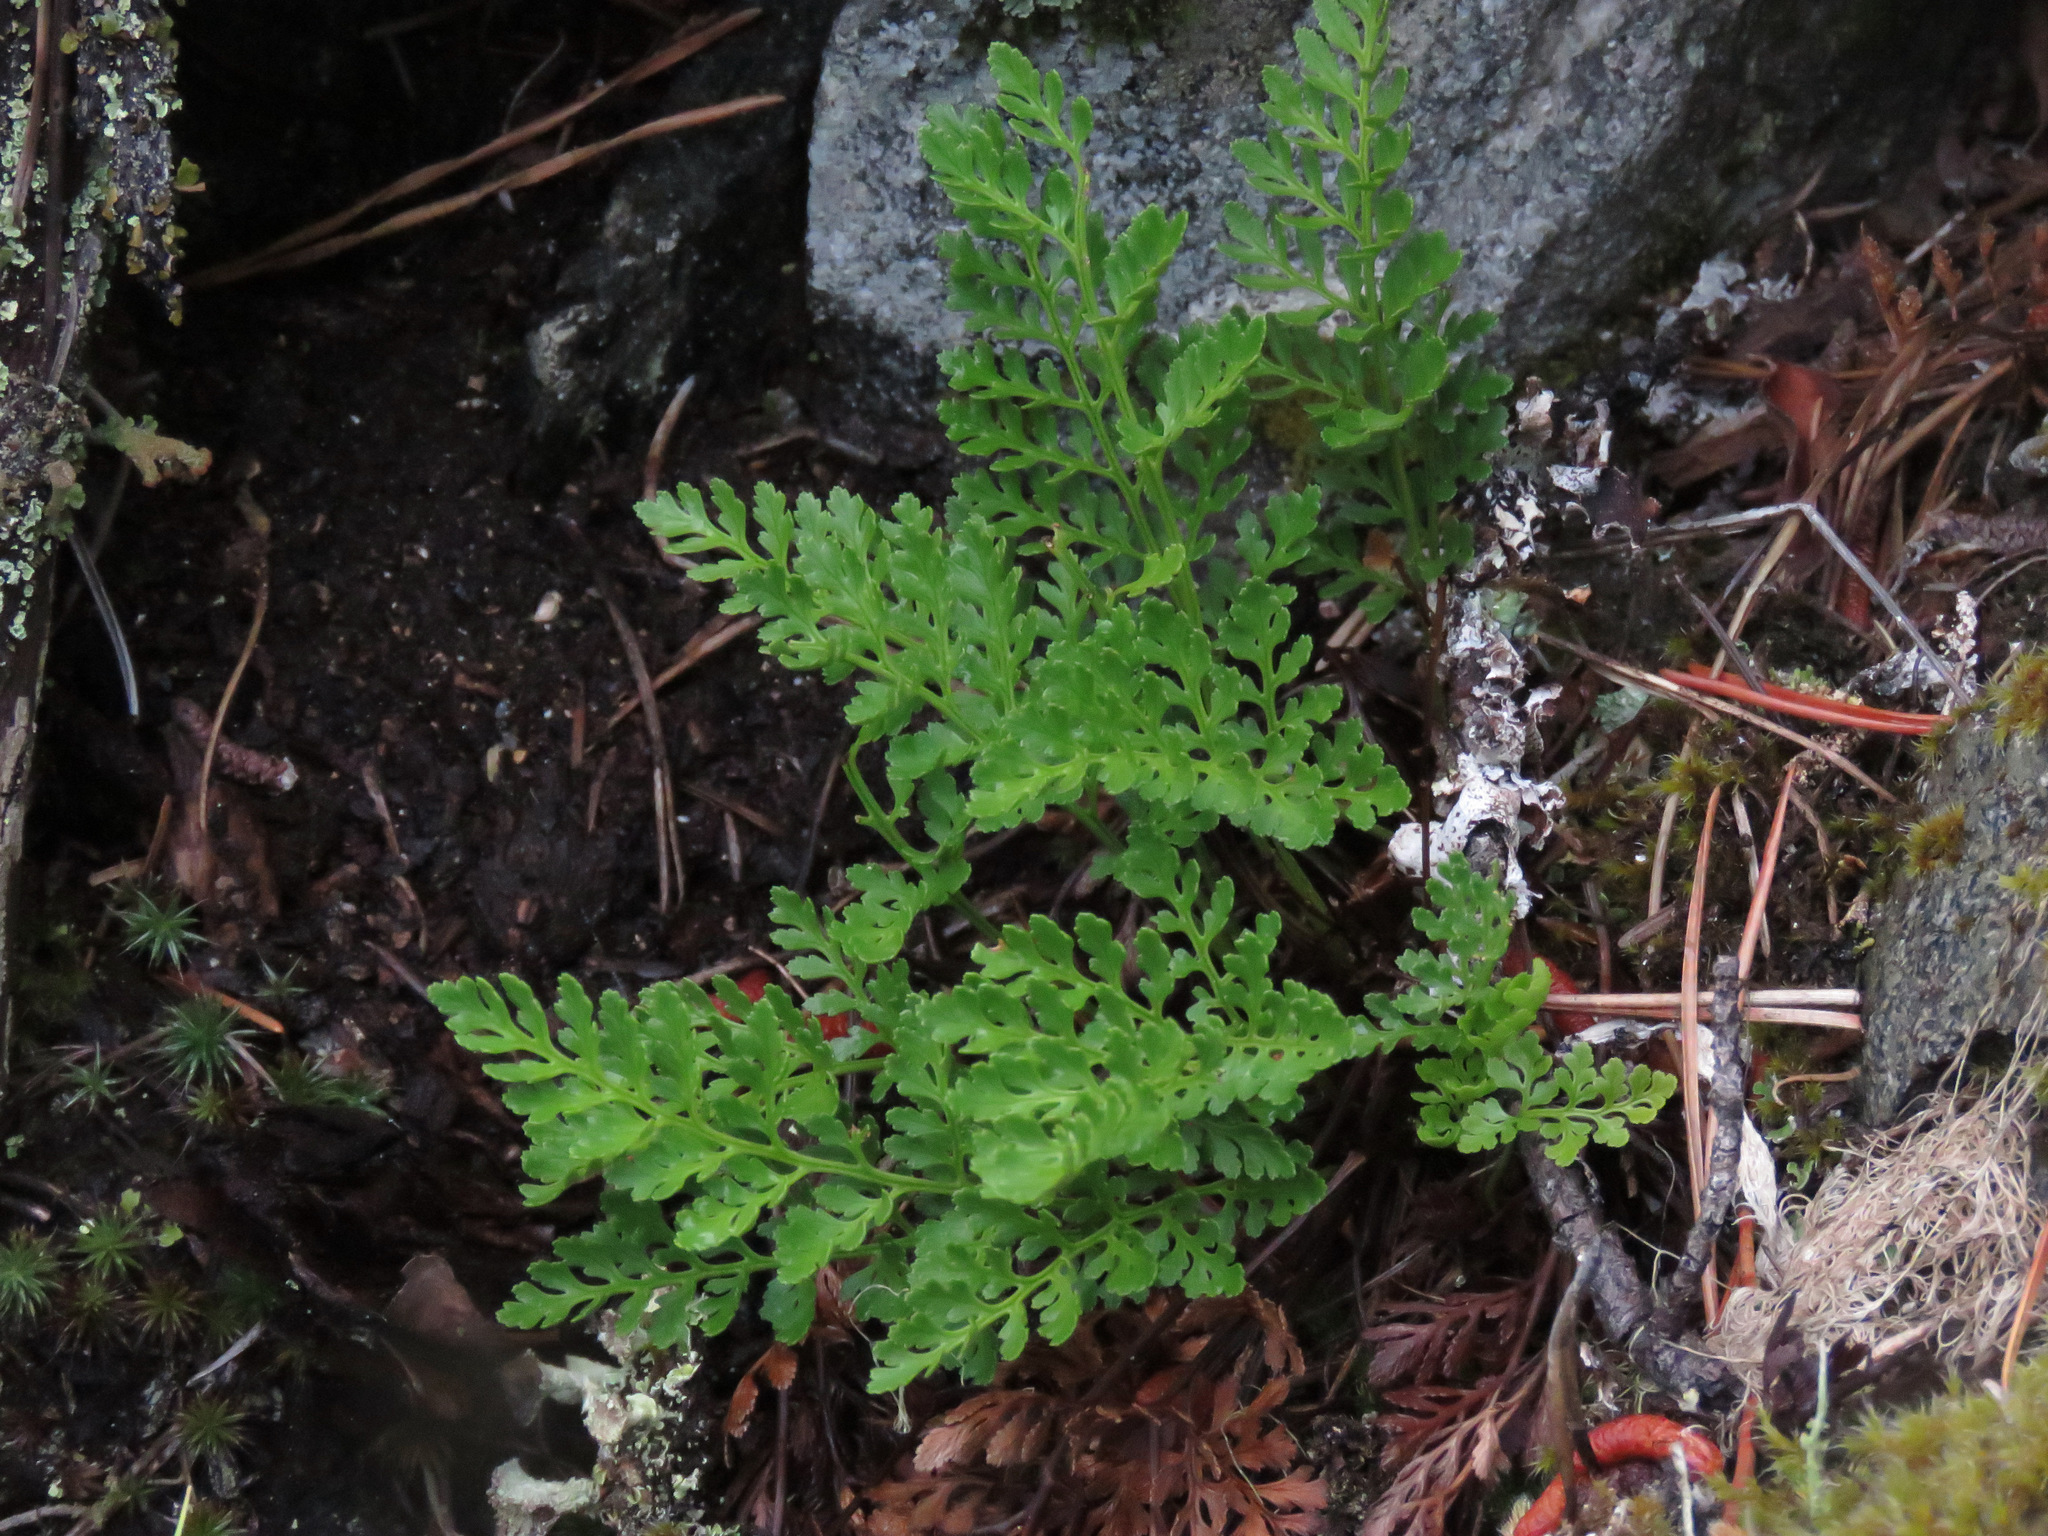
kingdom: Plantae
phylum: Tracheophyta
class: Polypodiopsida
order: Polypodiales
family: Pteridaceae
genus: Cryptogramma
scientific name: Cryptogramma acrostichoides
